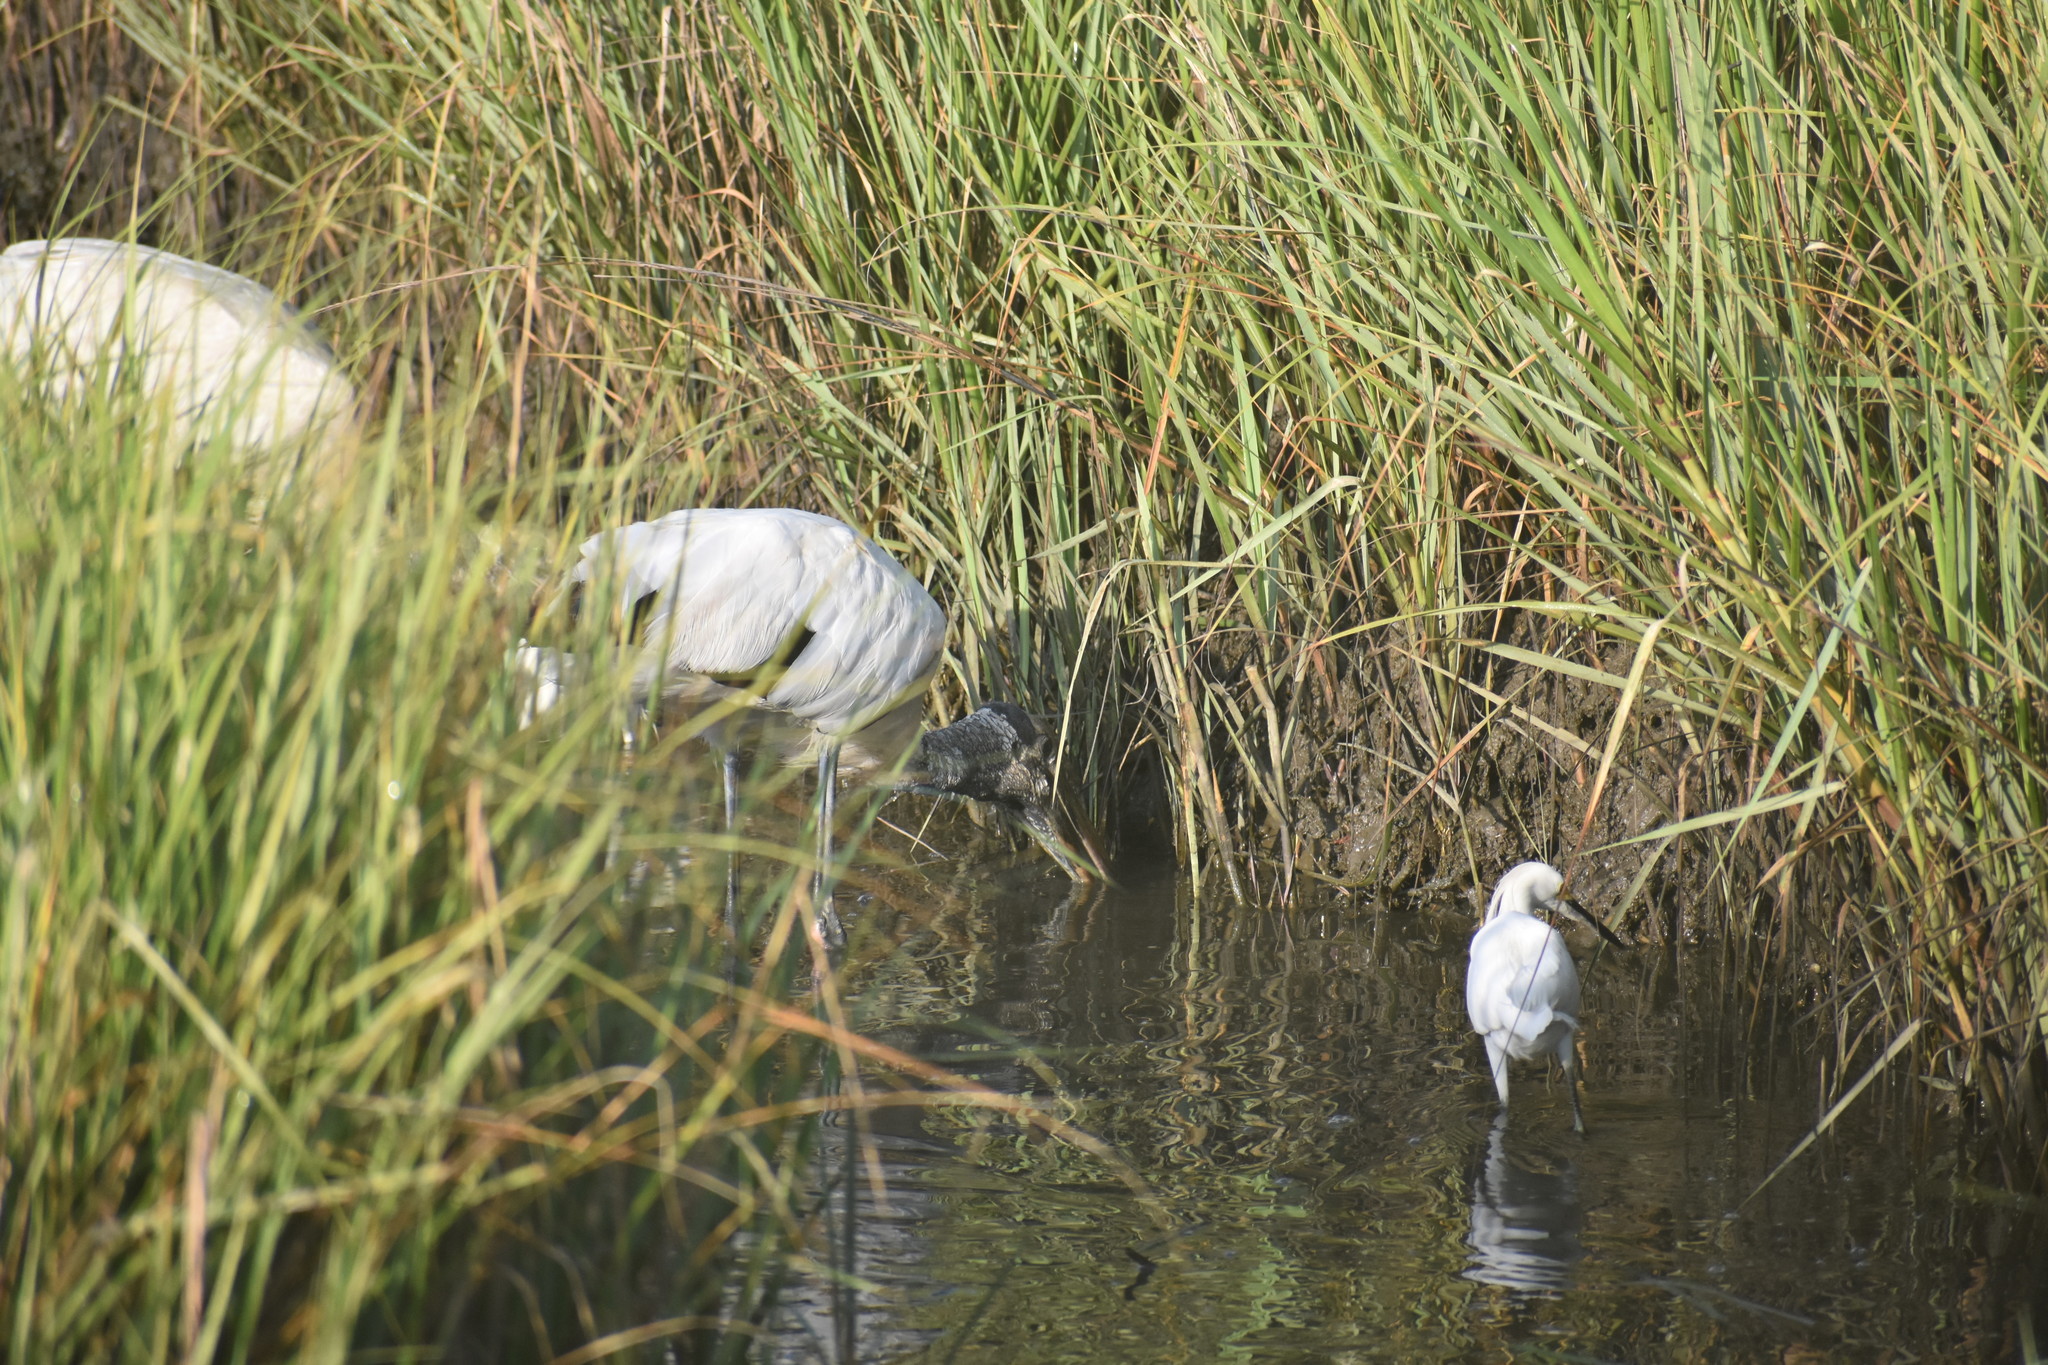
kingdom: Animalia
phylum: Chordata
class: Aves
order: Pelecaniformes
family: Ardeidae
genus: Egretta
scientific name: Egretta thula
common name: Snowy egret
